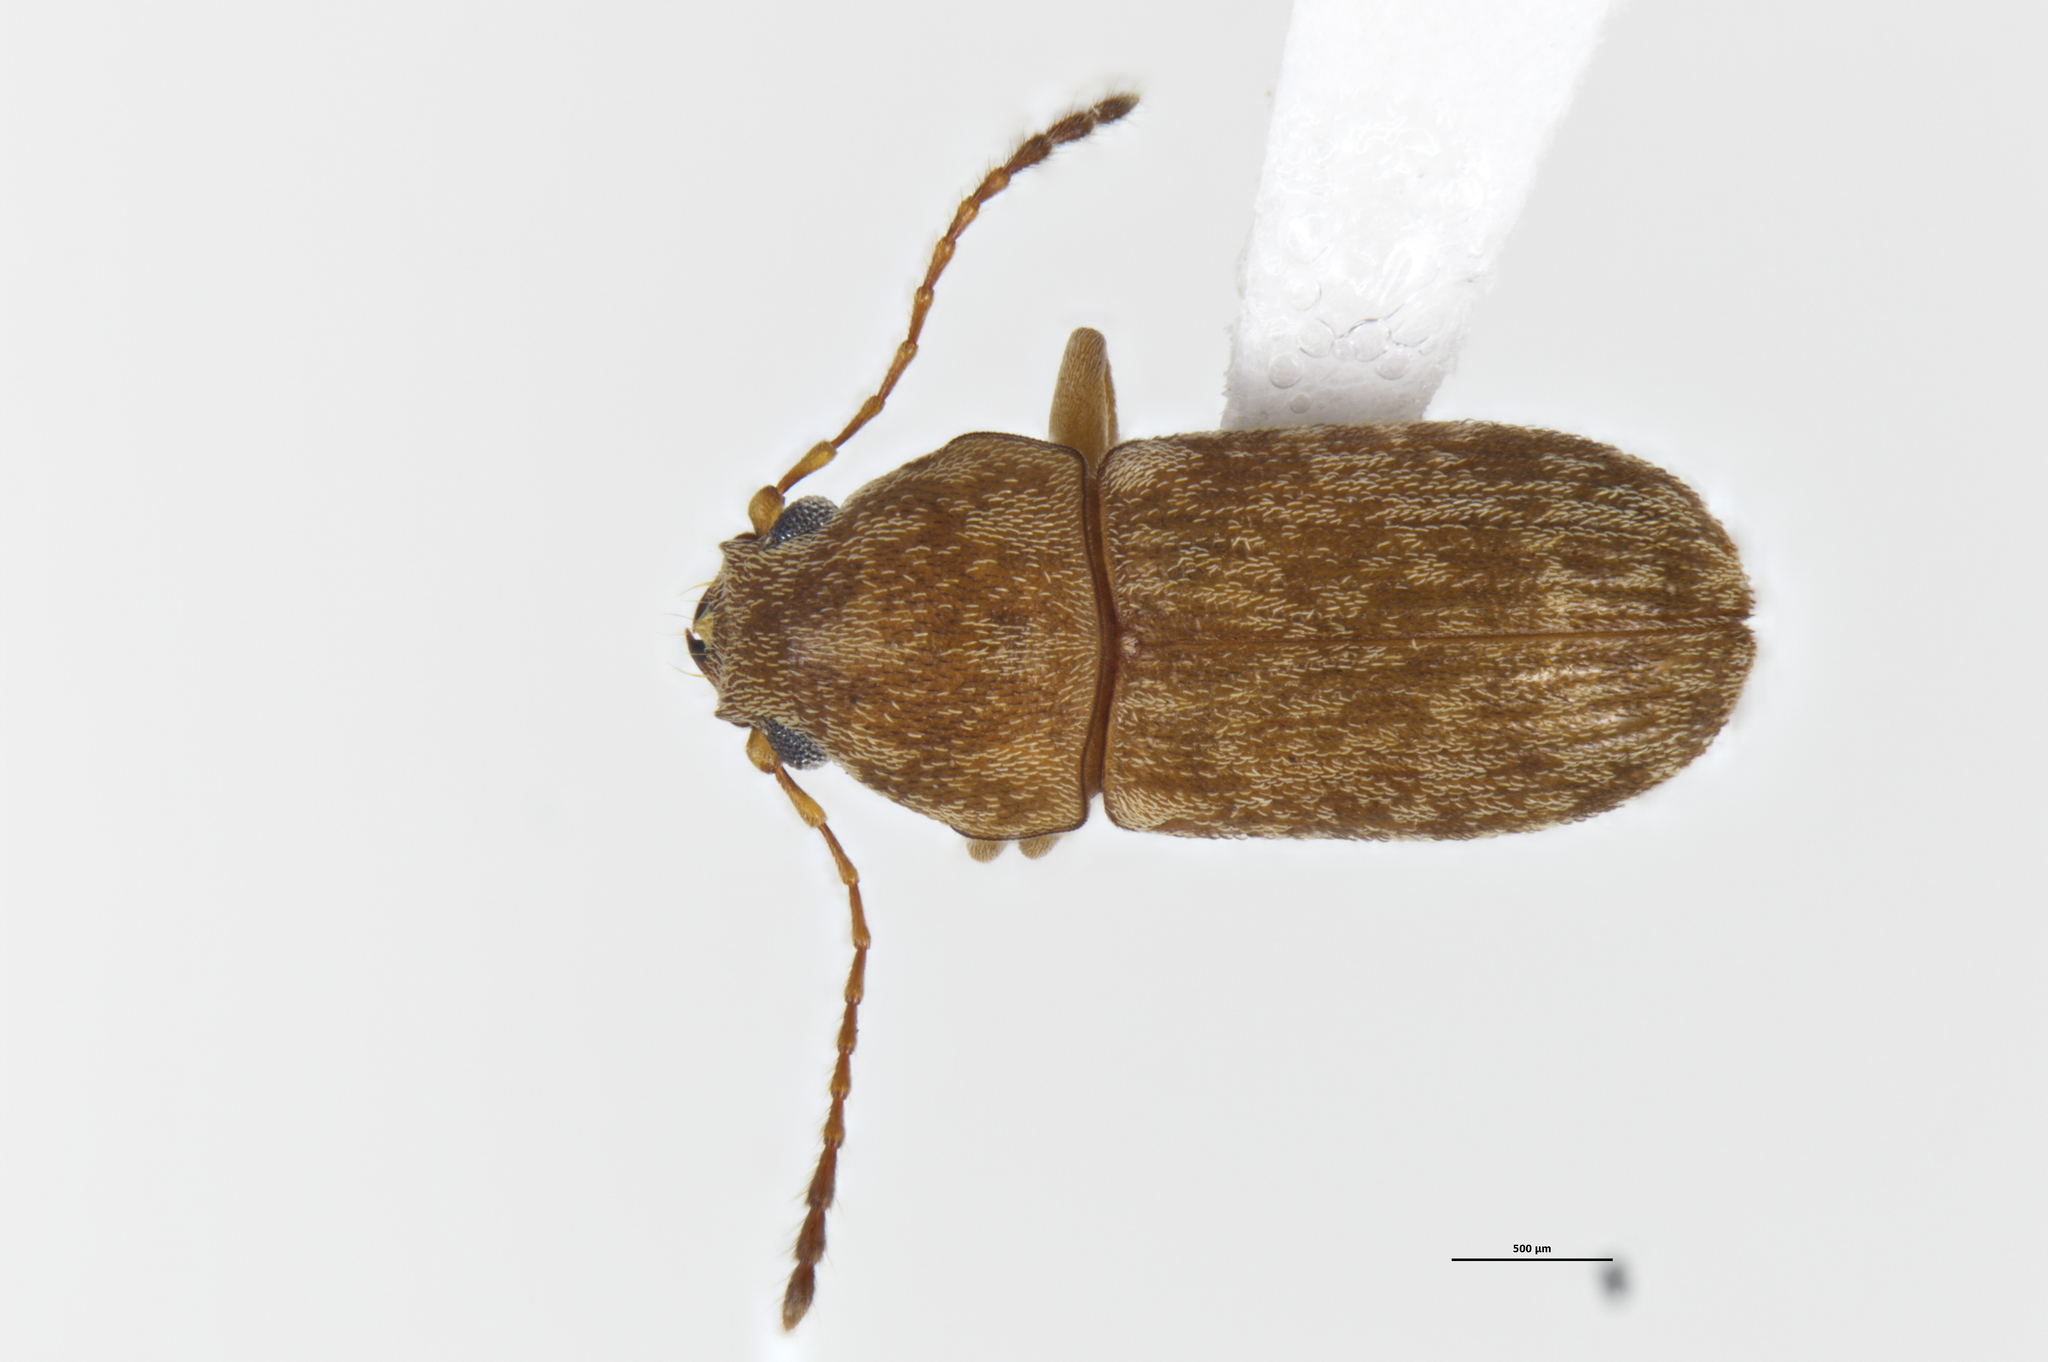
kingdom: Animalia
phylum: Arthropoda
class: Insecta
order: Coleoptera
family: Anthribidae
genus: Mauia
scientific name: Mauia subnotata
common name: Fungus weevil
